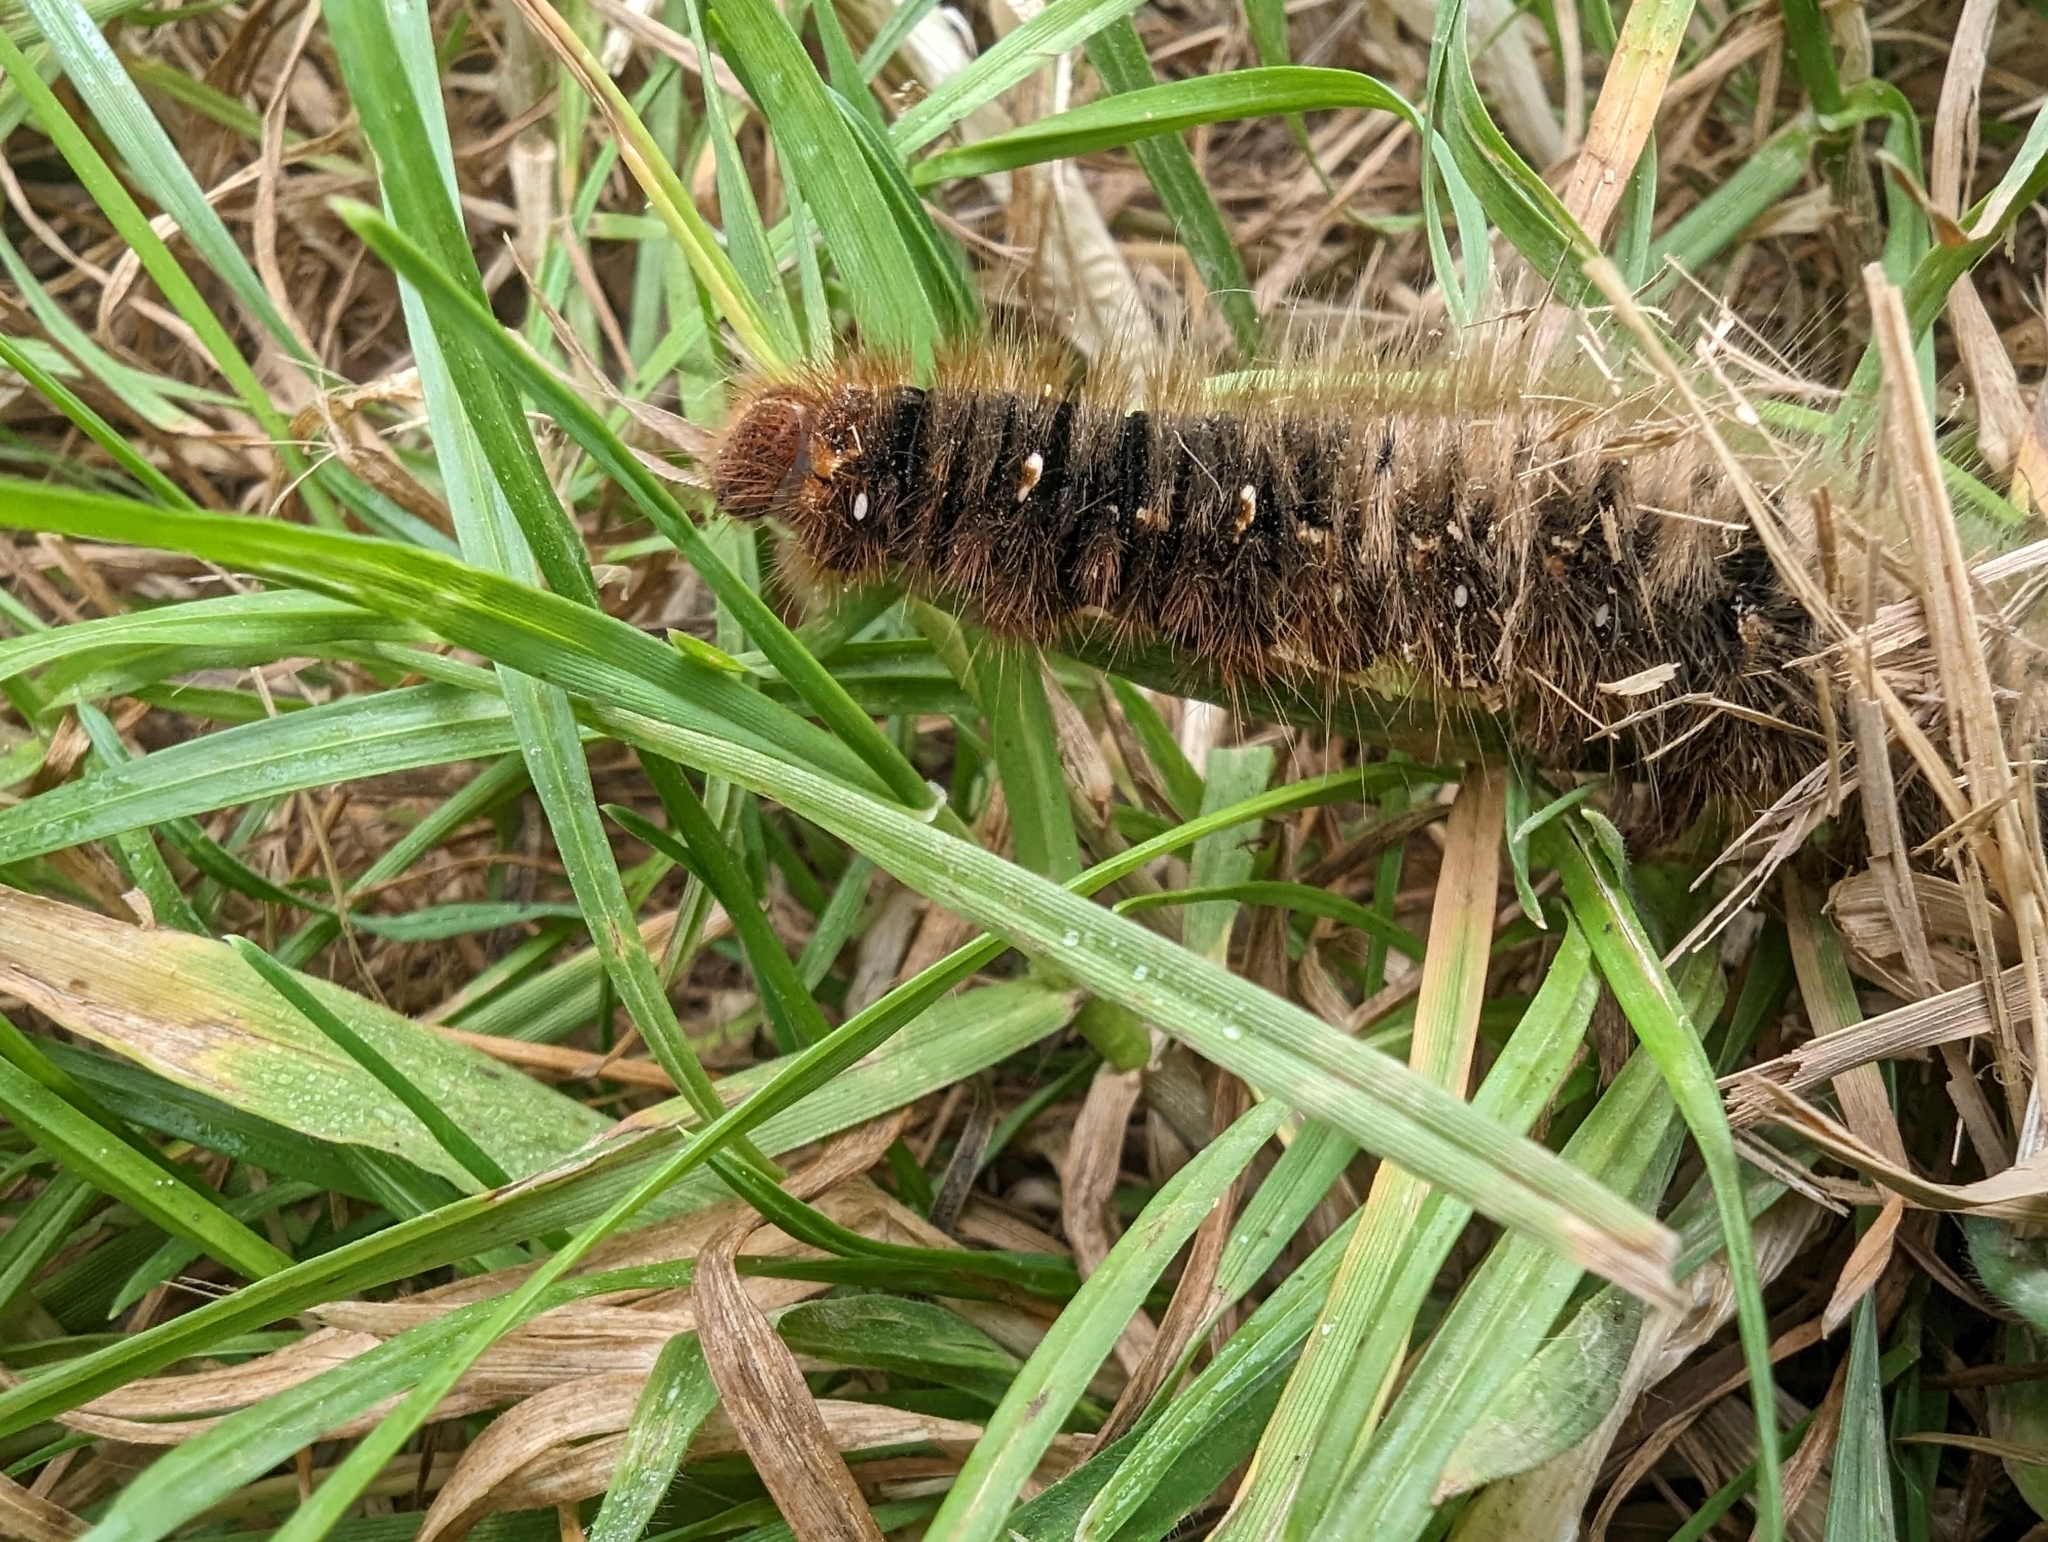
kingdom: Animalia
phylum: Arthropoda
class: Insecta
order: Lepidoptera
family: Lasiocampidae
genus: Lasiocampa
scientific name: Lasiocampa quercus
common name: Oak eggar
